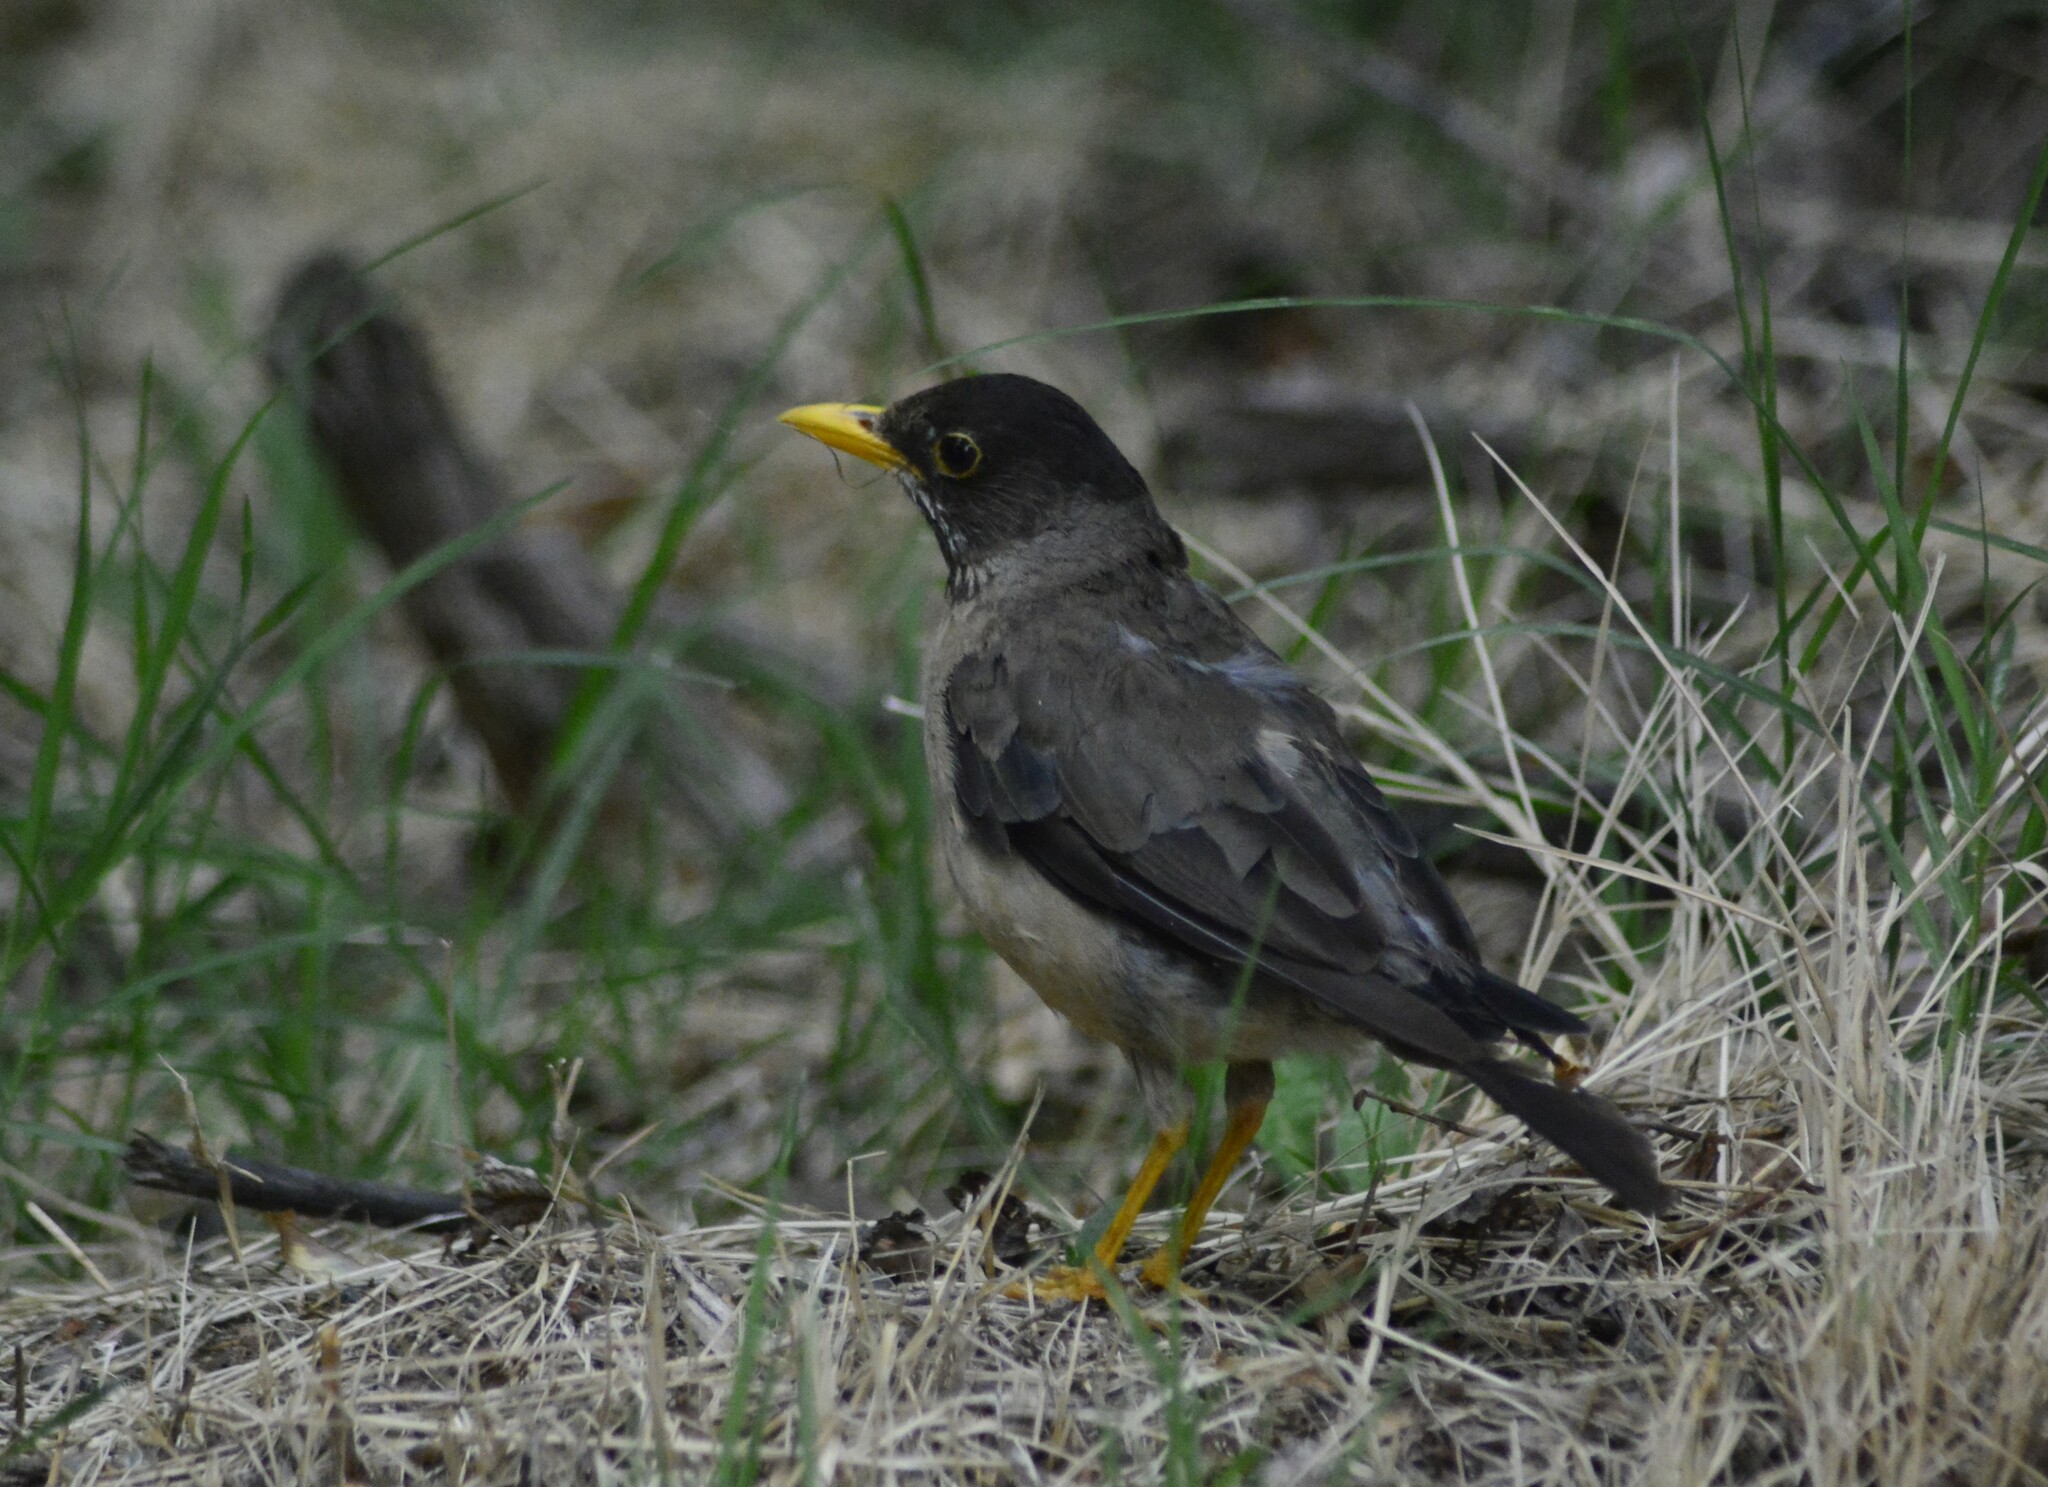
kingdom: Animalia
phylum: Chordata
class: Aves
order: Passeriformes
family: Turdidae
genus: Turdus
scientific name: Turdus falcklandii
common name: Austral thrush
